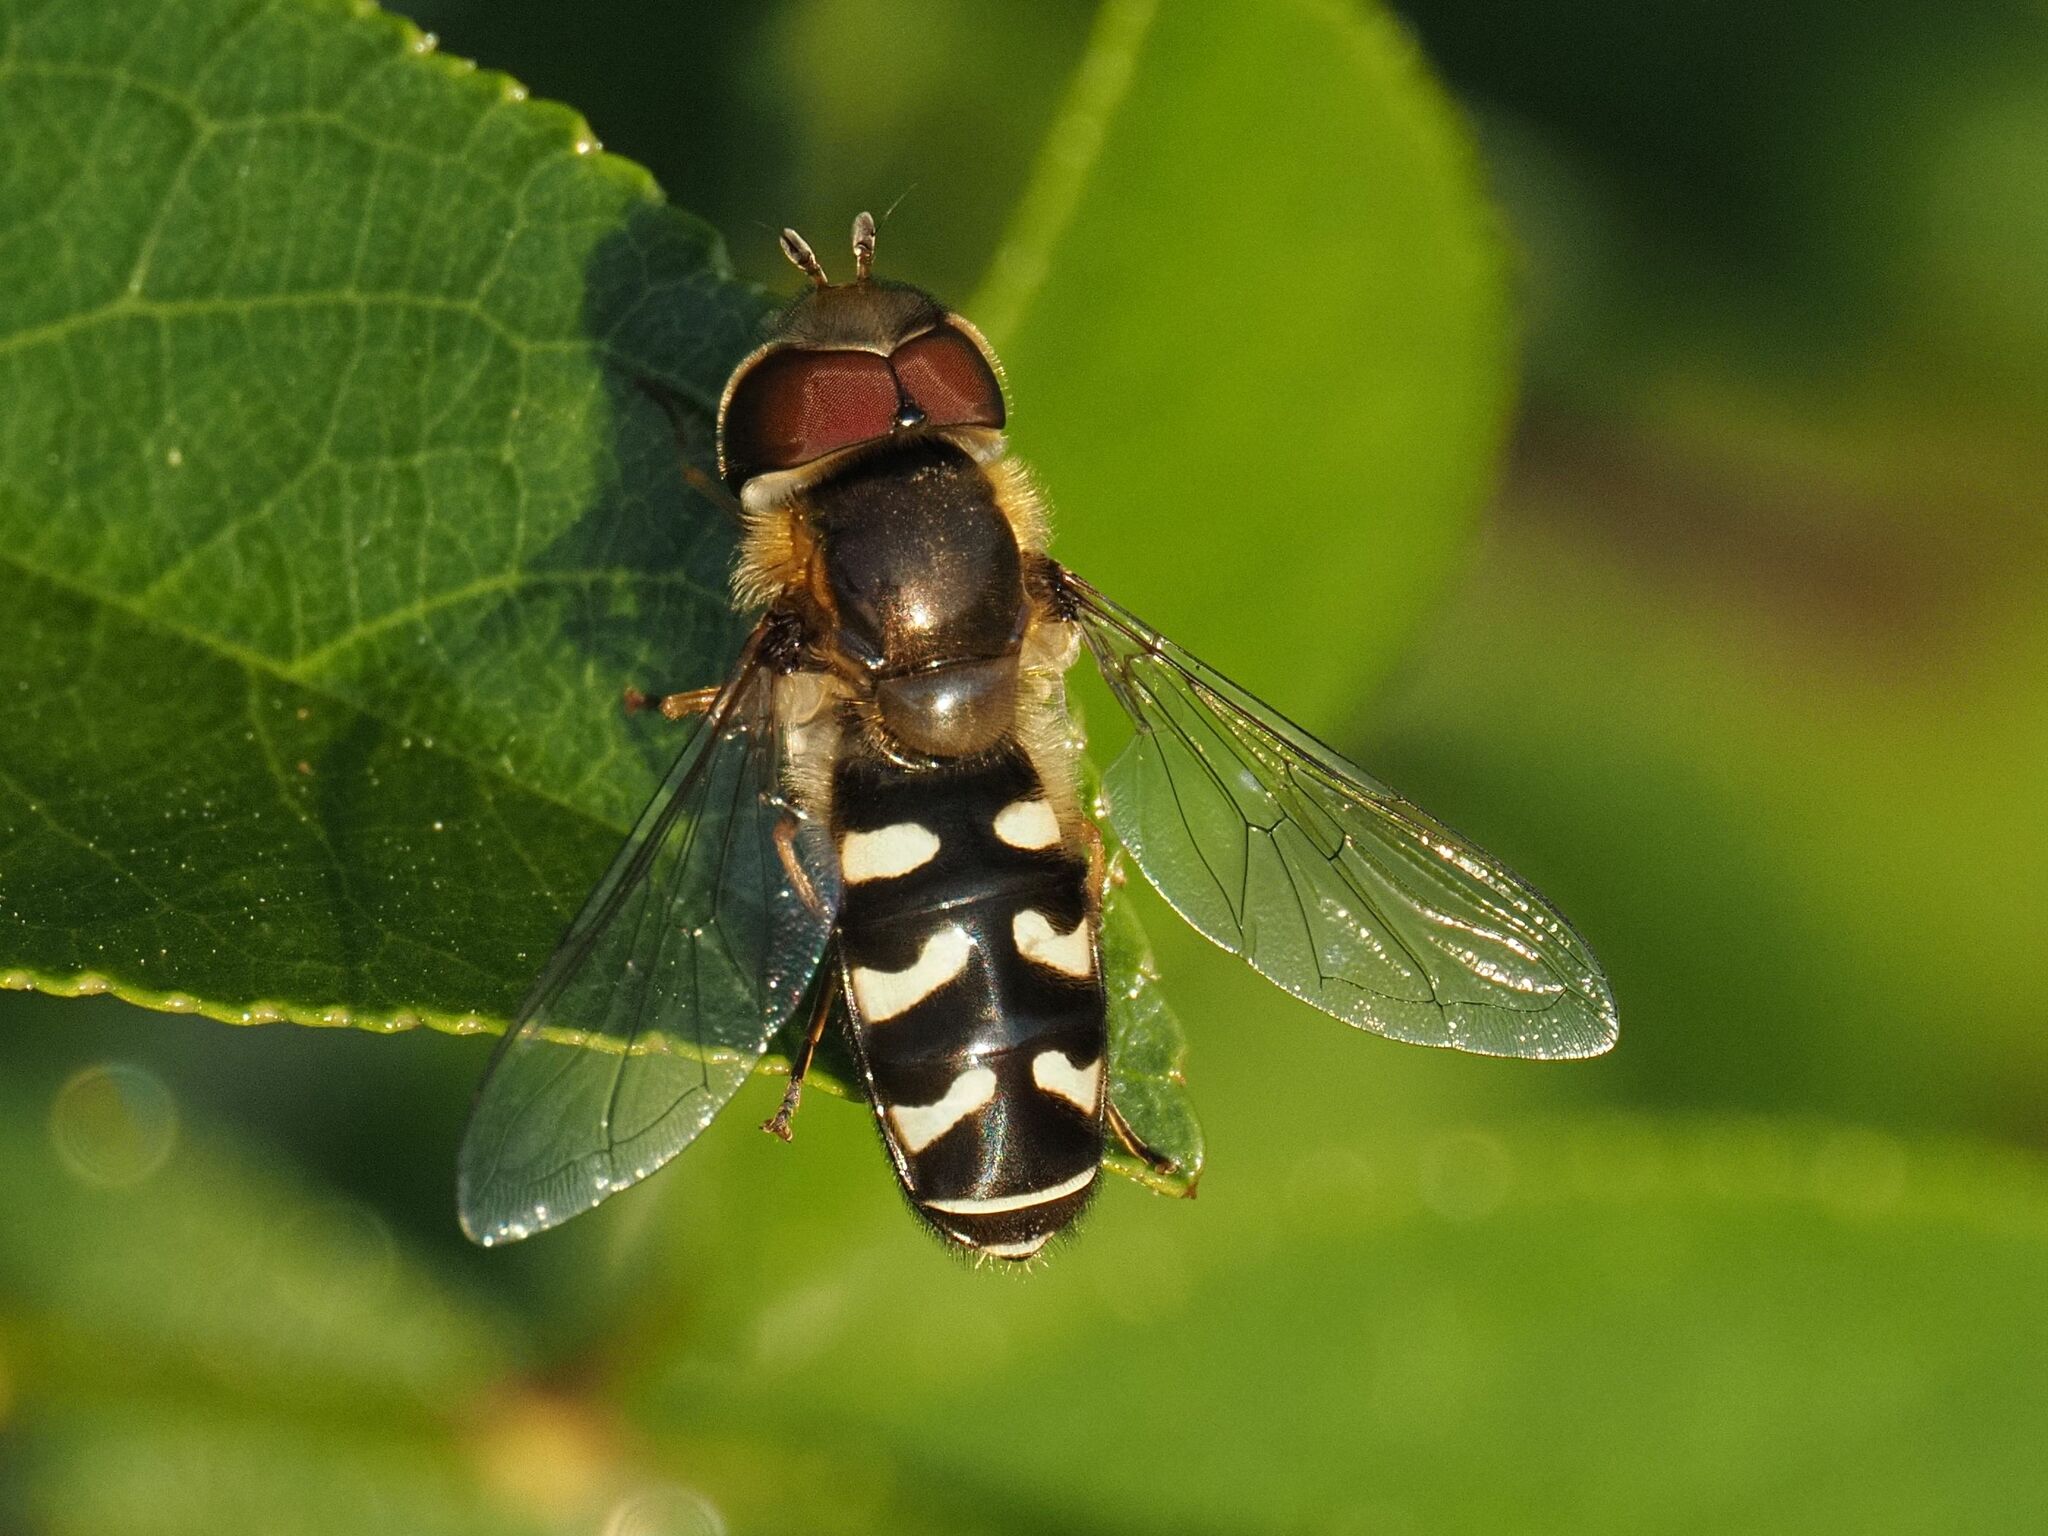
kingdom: Animalia
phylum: Arthropoda
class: Insecta
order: Diptera
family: Syrphidae
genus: Scaeva
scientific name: Scaeva pyrastri
